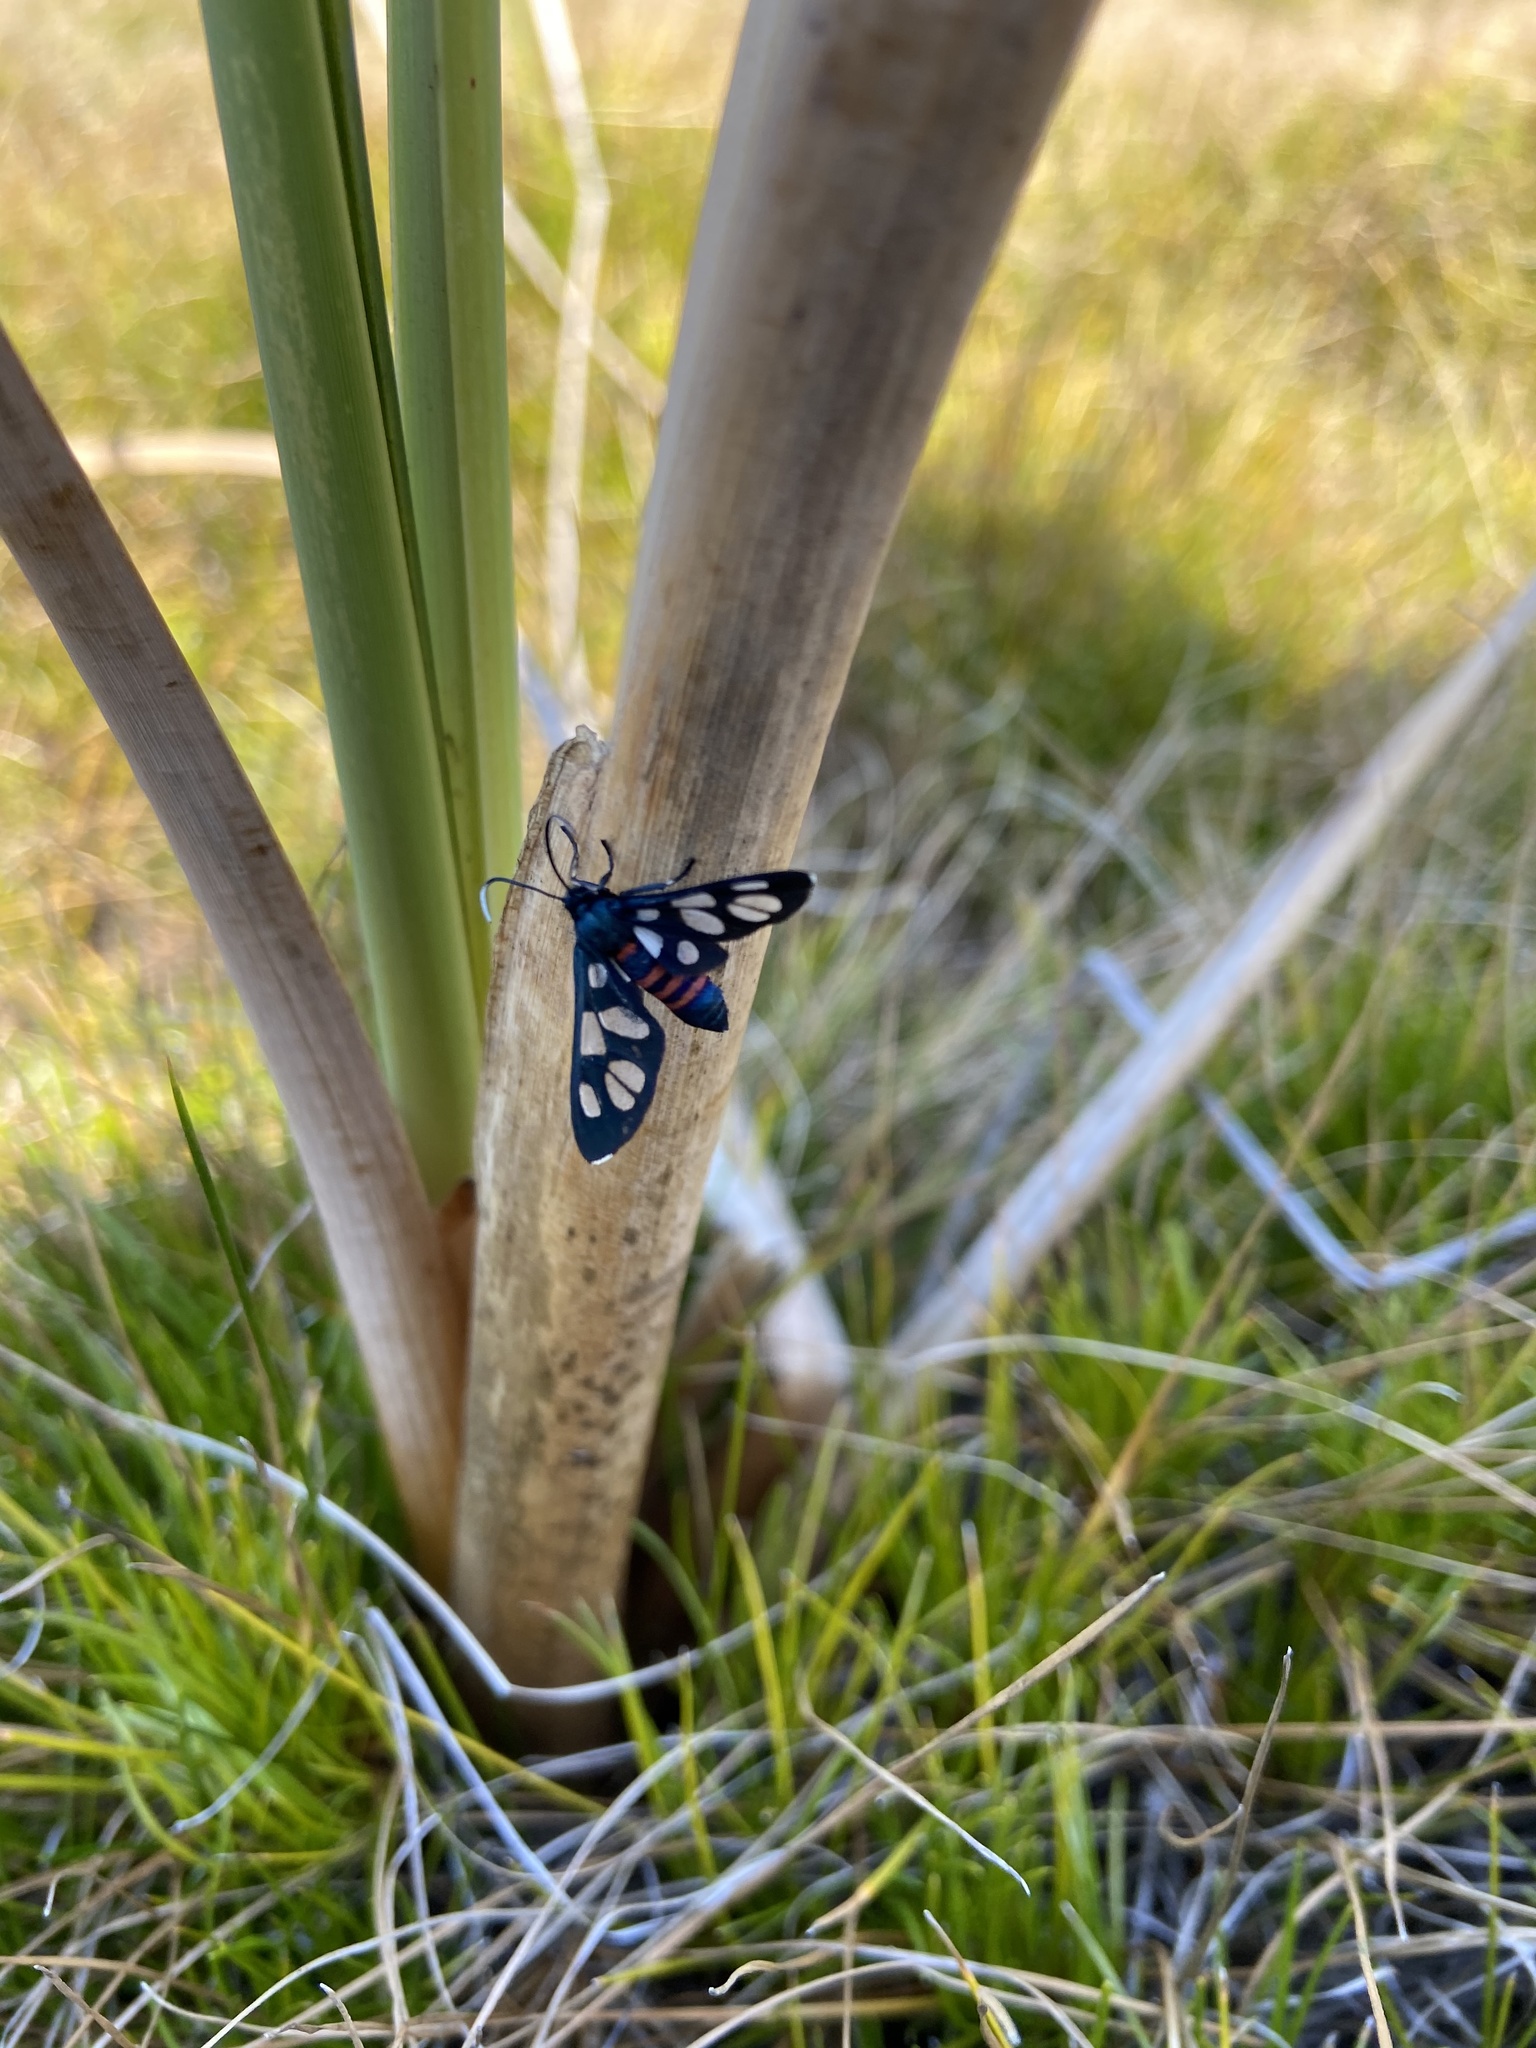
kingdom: Animalia
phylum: Arthropoda
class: Insecta
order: Lepidoptera
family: Erebidae
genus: Amata
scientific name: Amata cerbera
